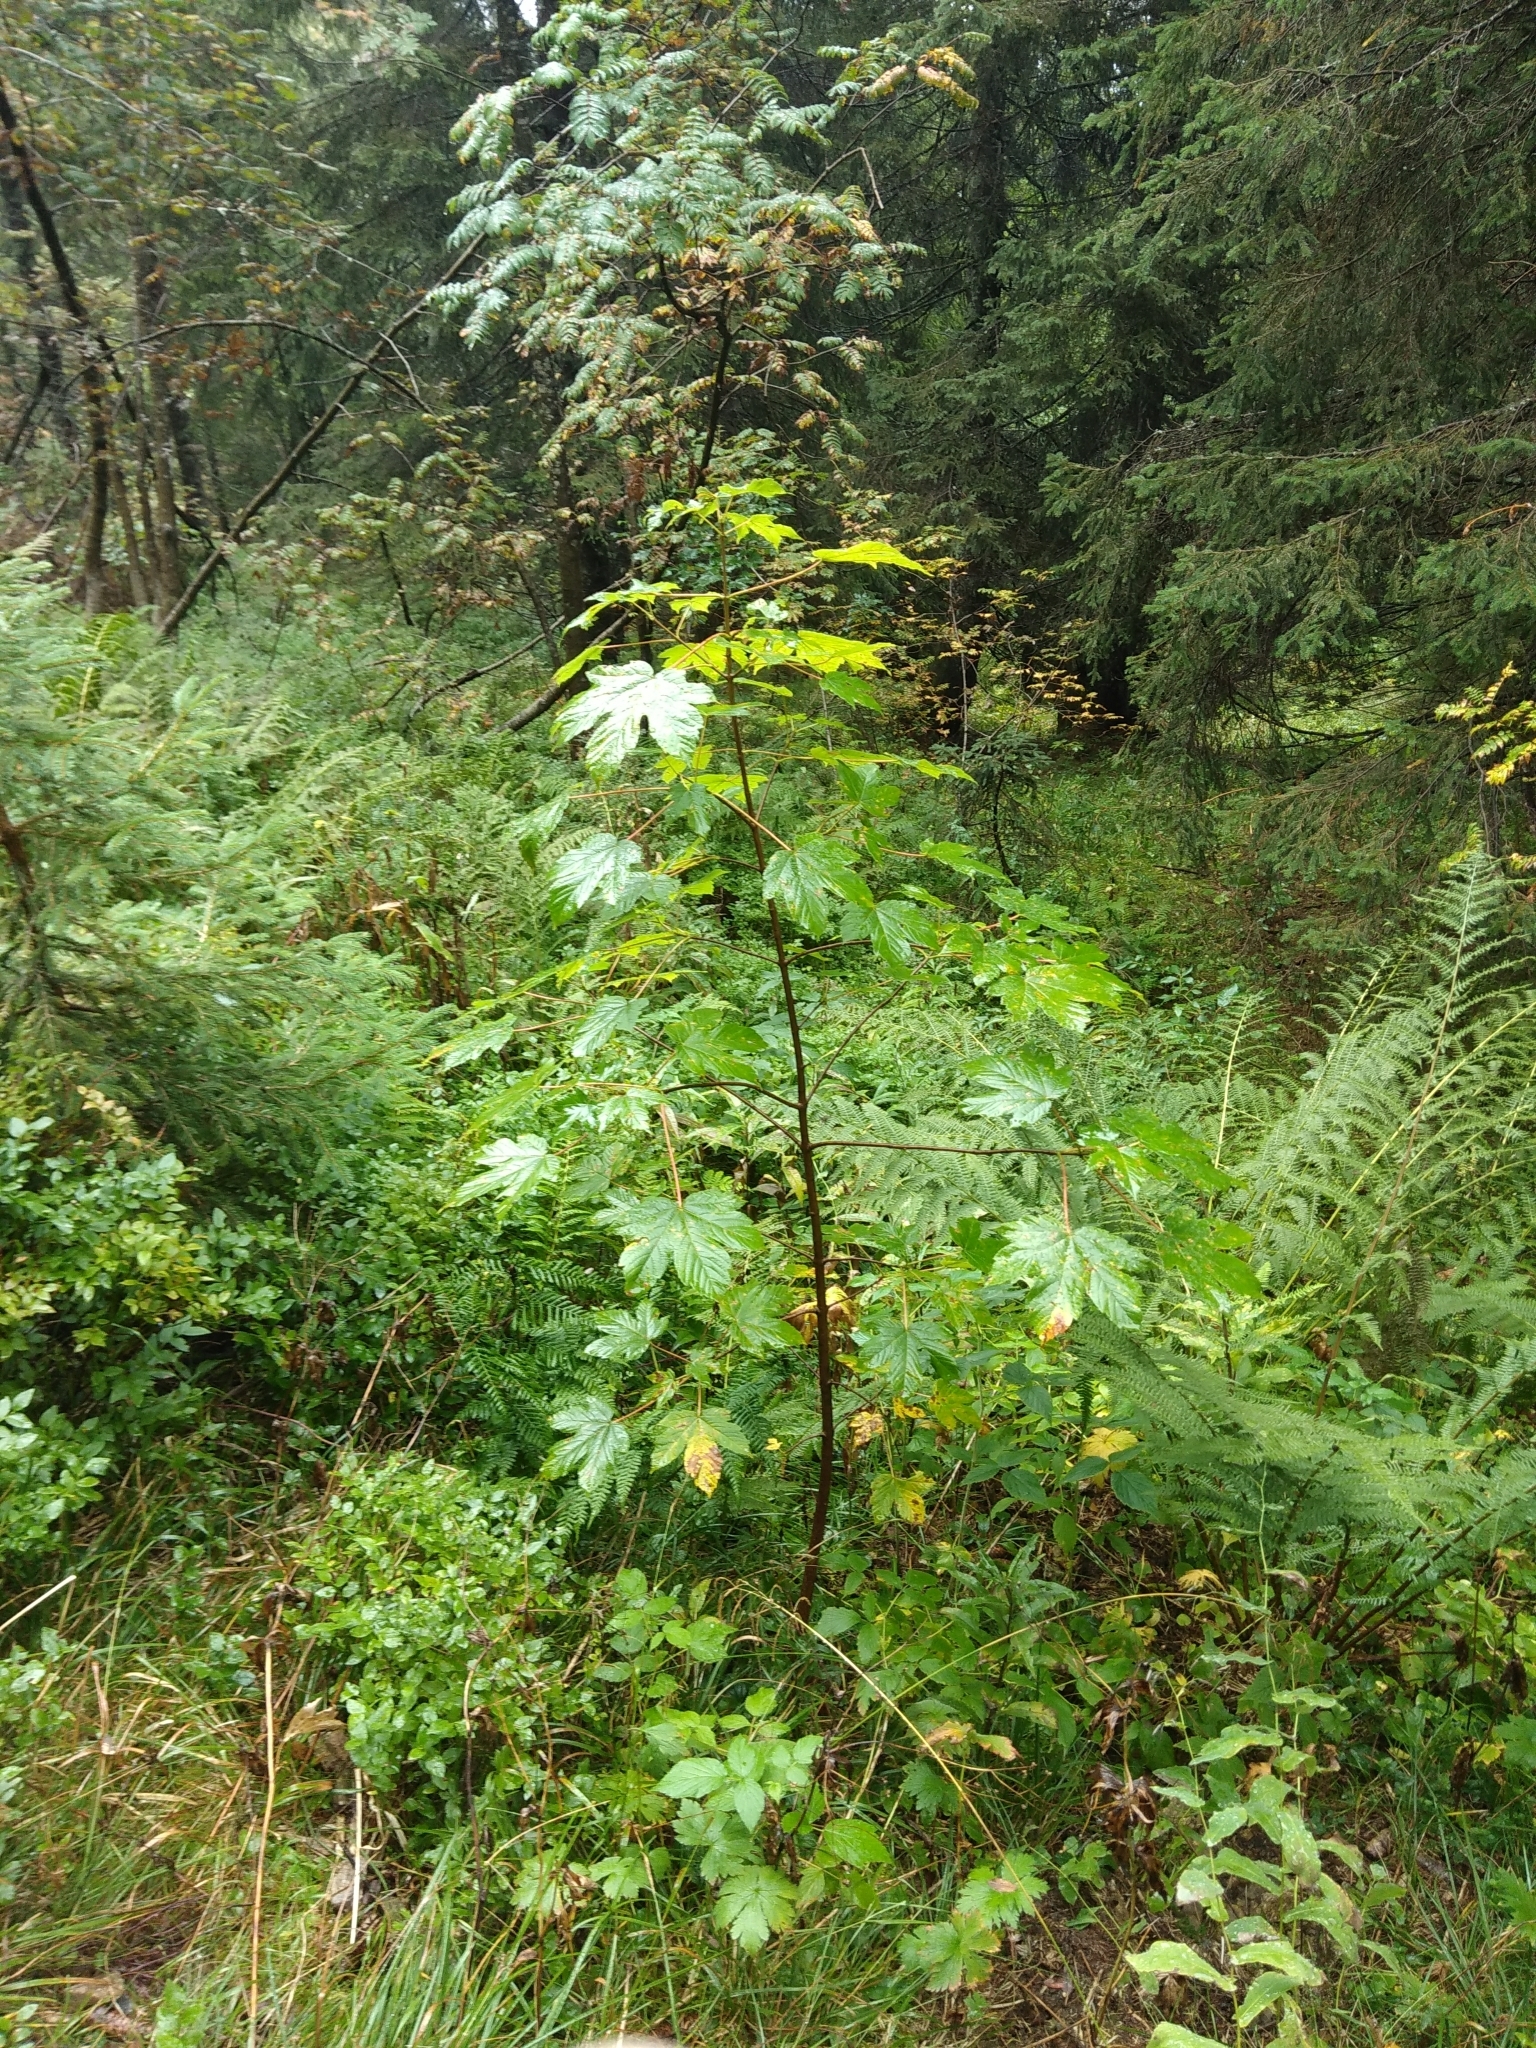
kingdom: Plantae
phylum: Tracheophyta
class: Magnoliopsida
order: Sapindales
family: Sapindaceae
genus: Acer
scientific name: Acer pseudoplatanus
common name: Sycamore
